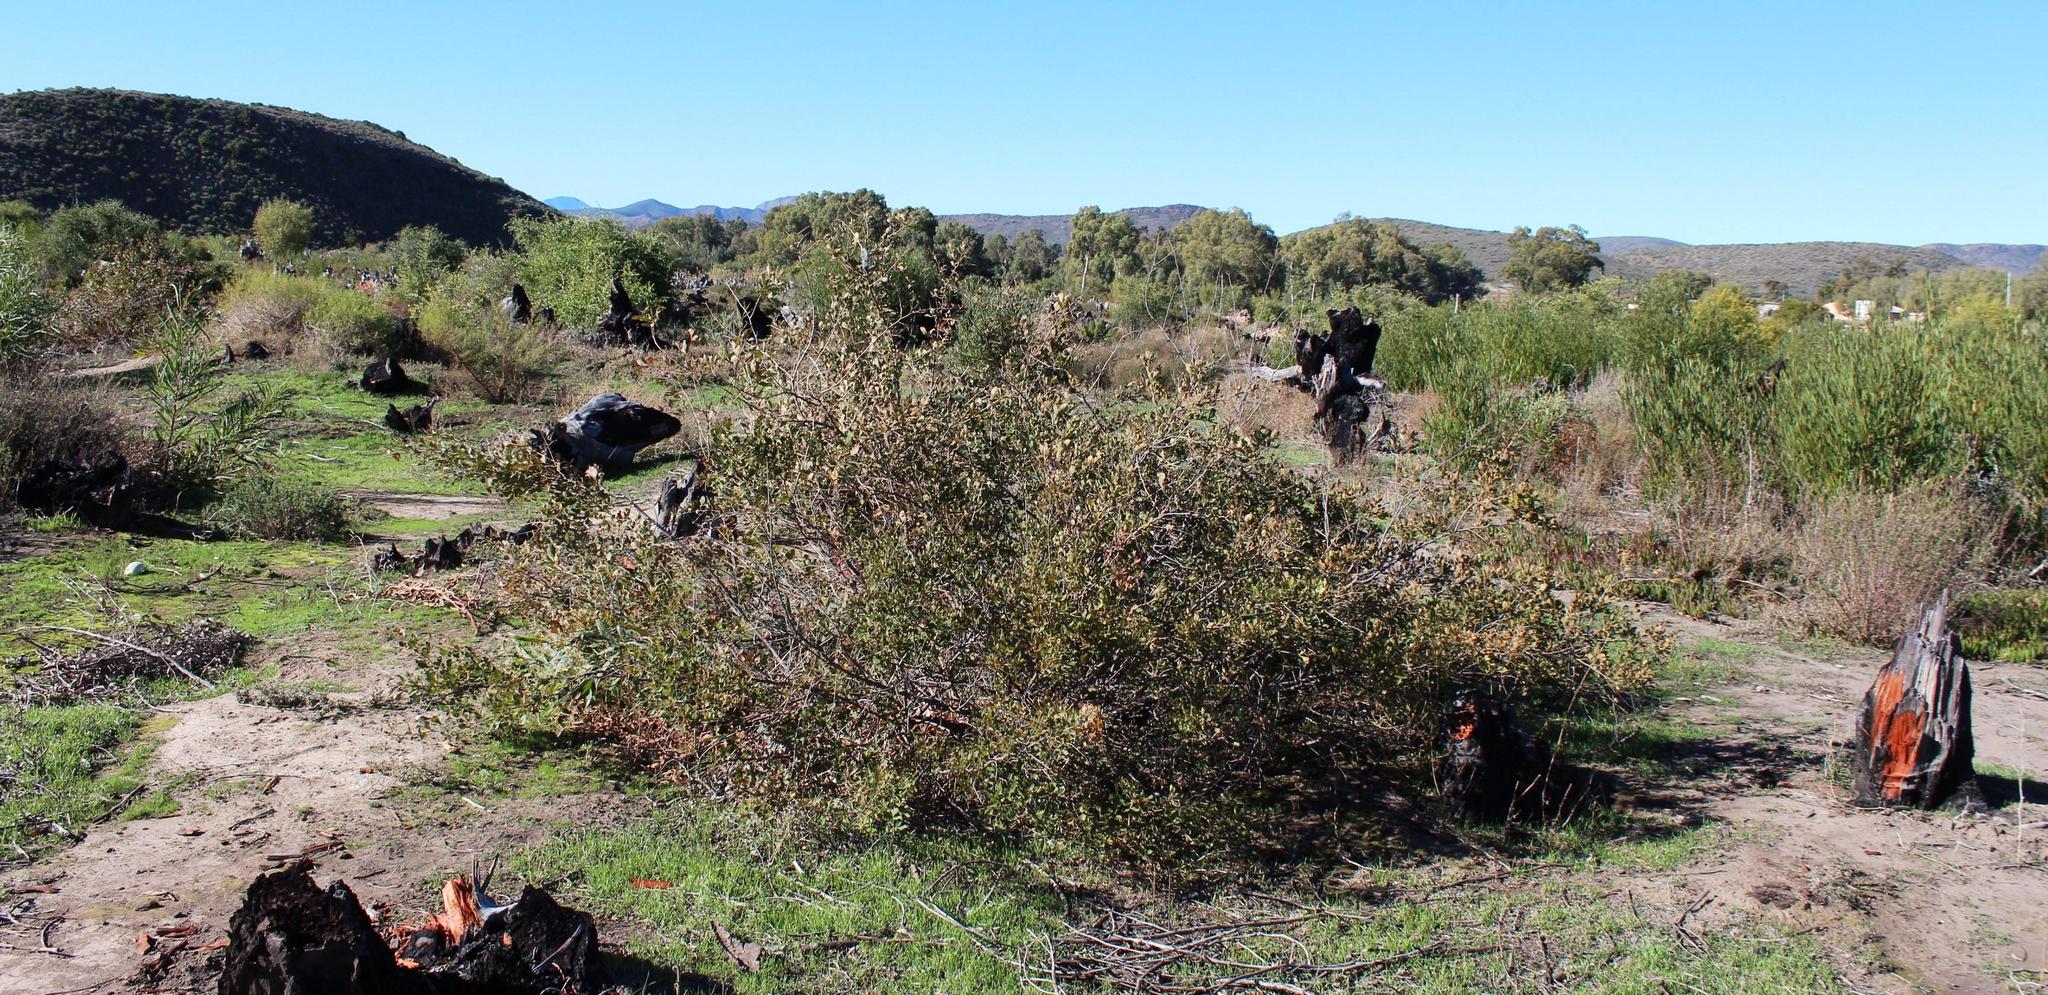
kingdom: Plantae
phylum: Tracheophyta
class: Magnoliopsida
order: Sapindales
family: Anacardiaceae
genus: Searsia
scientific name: Searsia rehmanniana
